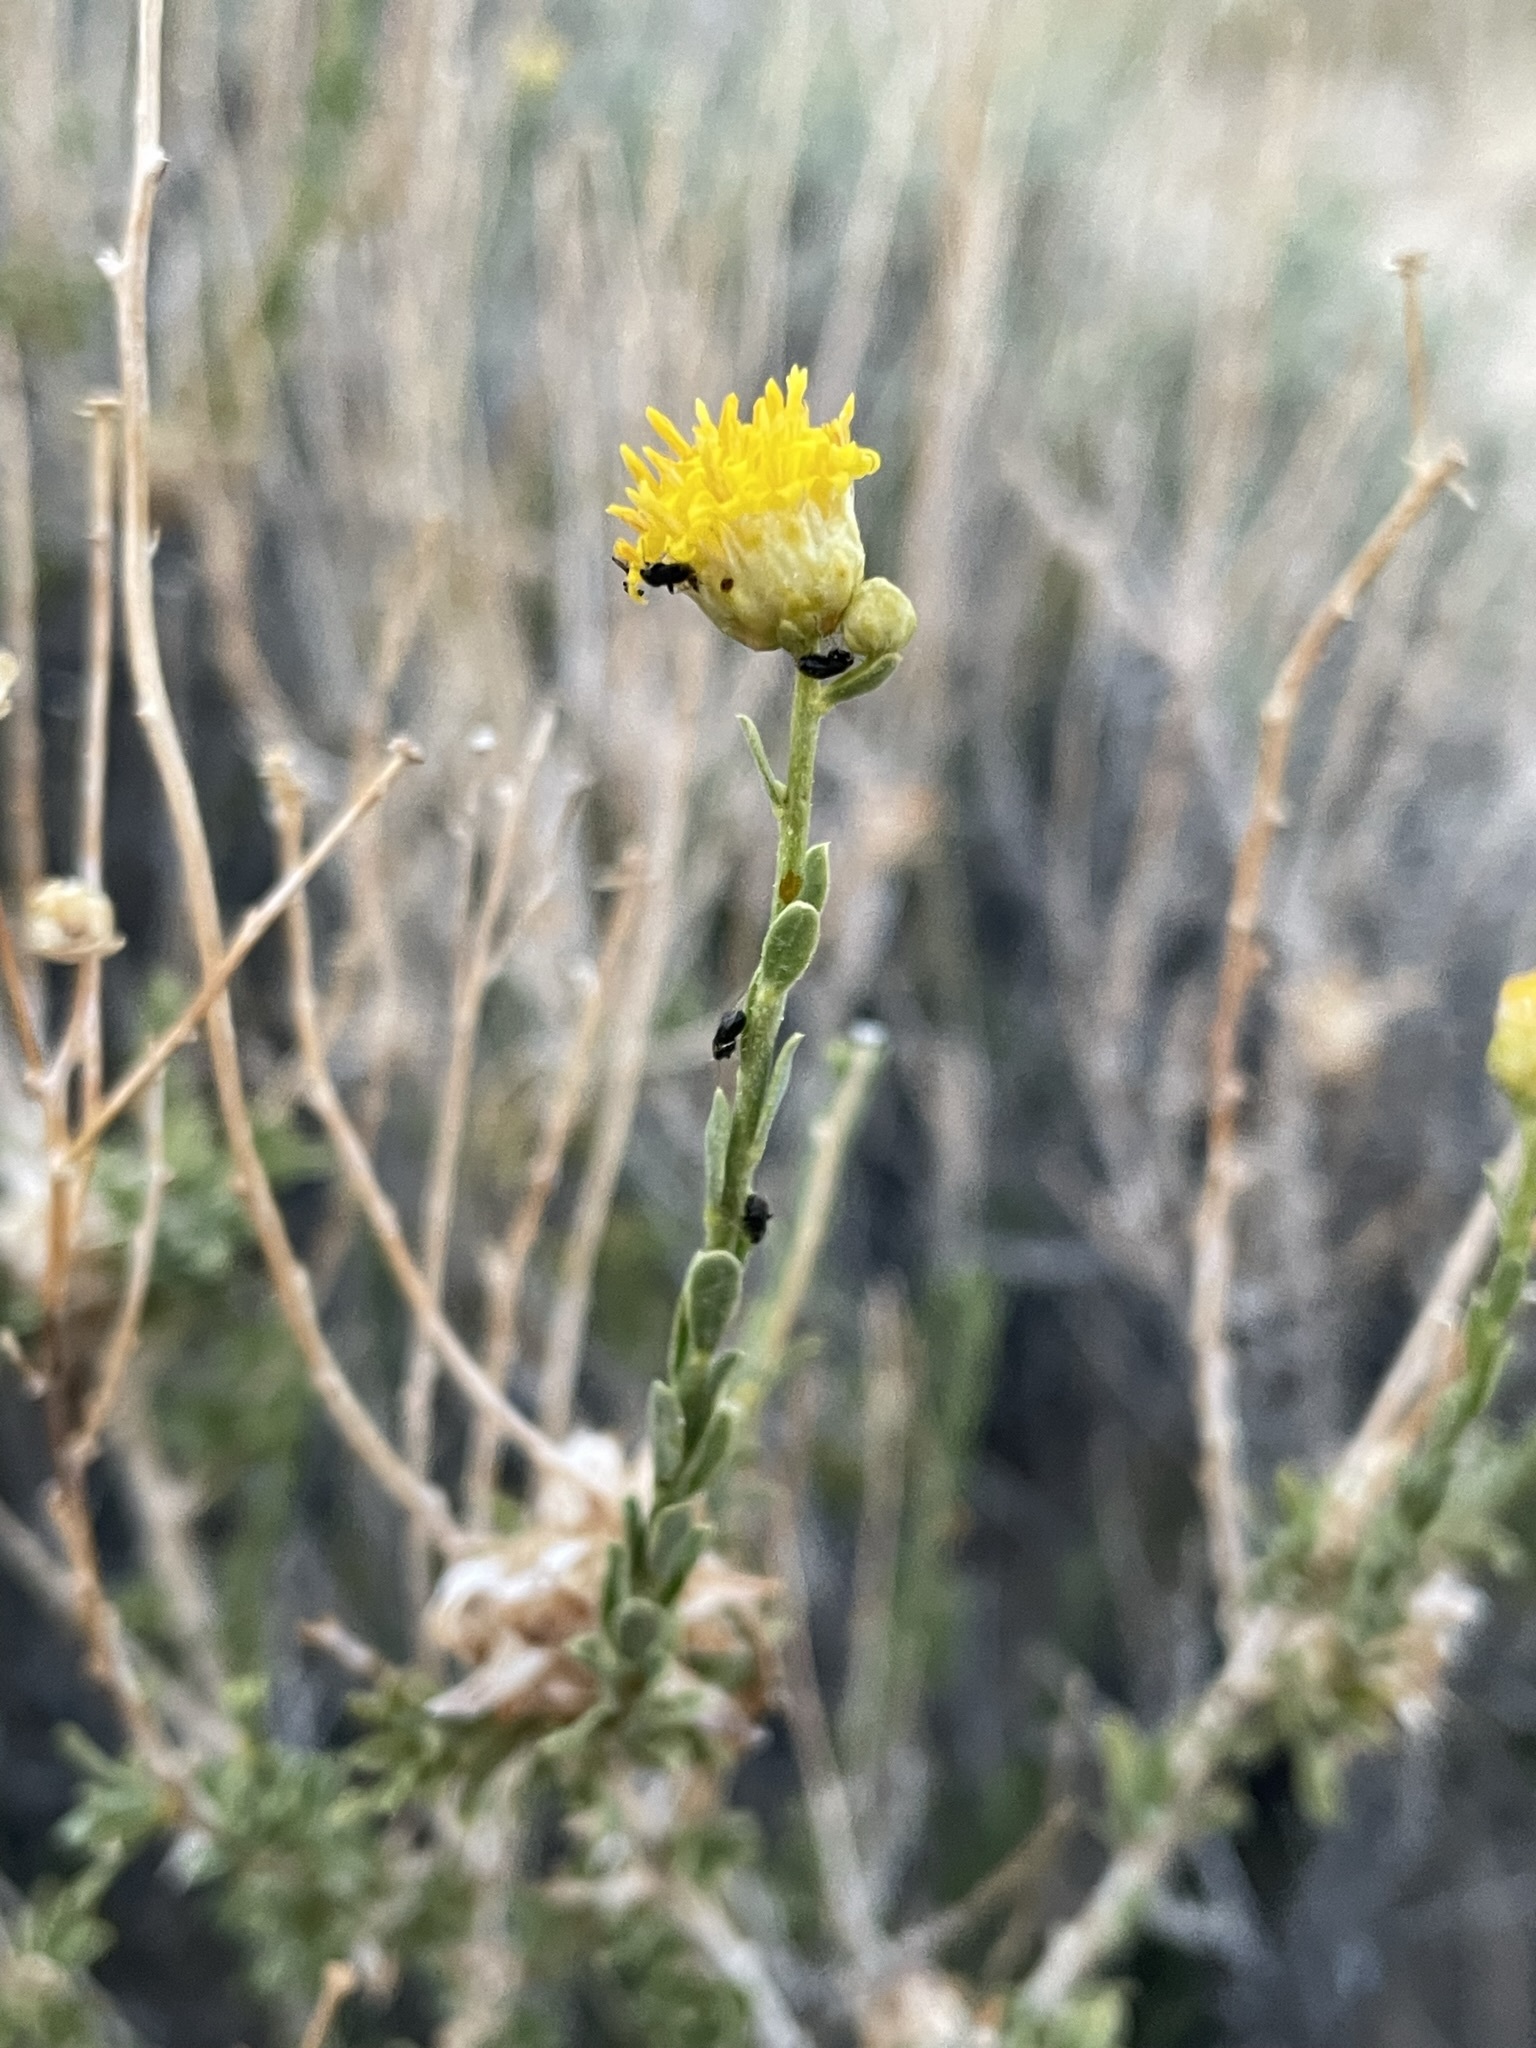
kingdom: Plantae
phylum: Tracheophyta
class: Magnoliopsida
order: Asterales
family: Asteraceae
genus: Acamptopappus
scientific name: Acamptopappus sphaerocephalus
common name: Goldenhead
